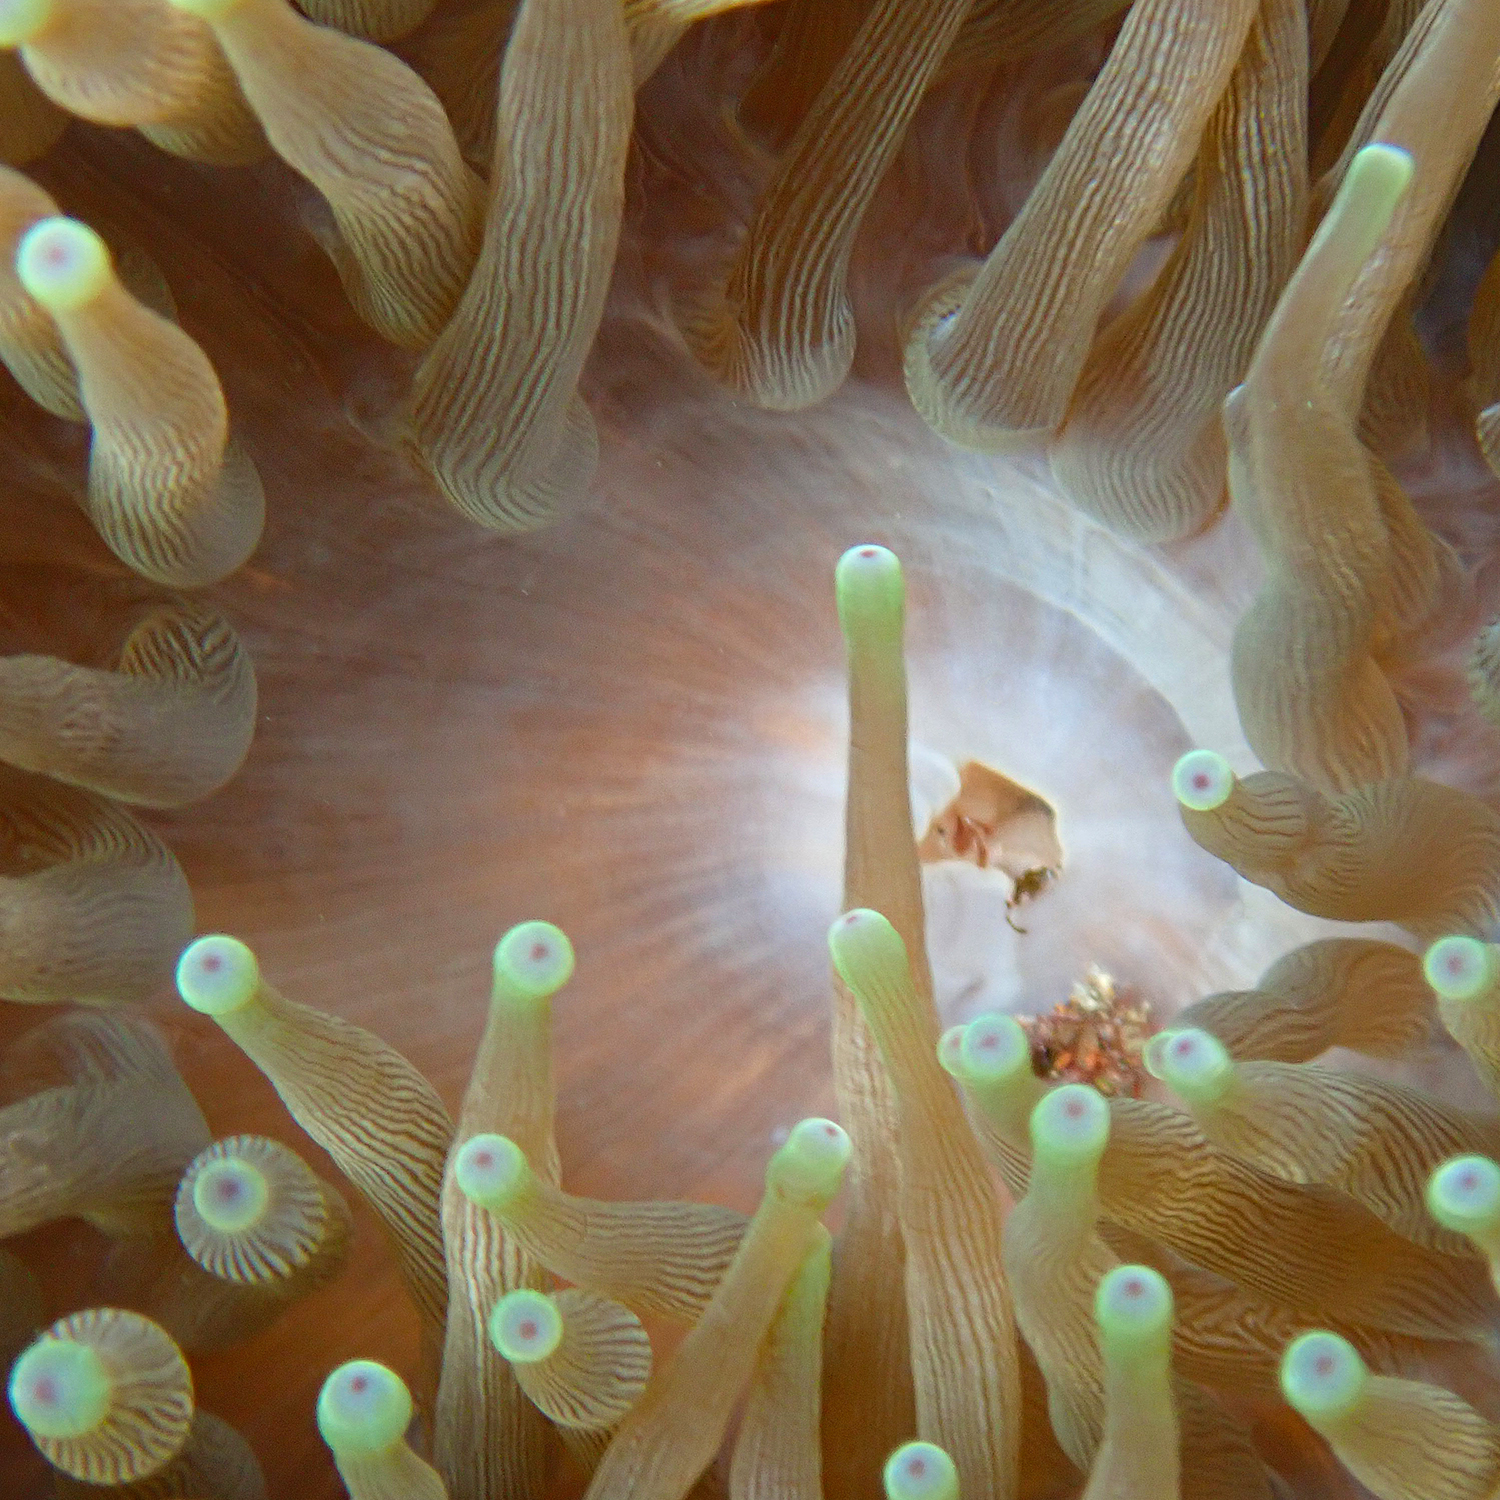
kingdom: Animalia
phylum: Cnidaria
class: Anthozoa
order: Actiniaria
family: Actiniidae
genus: Entacmaea
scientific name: Entacmaea quadricolor
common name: Bulb tentacle sea anemone
